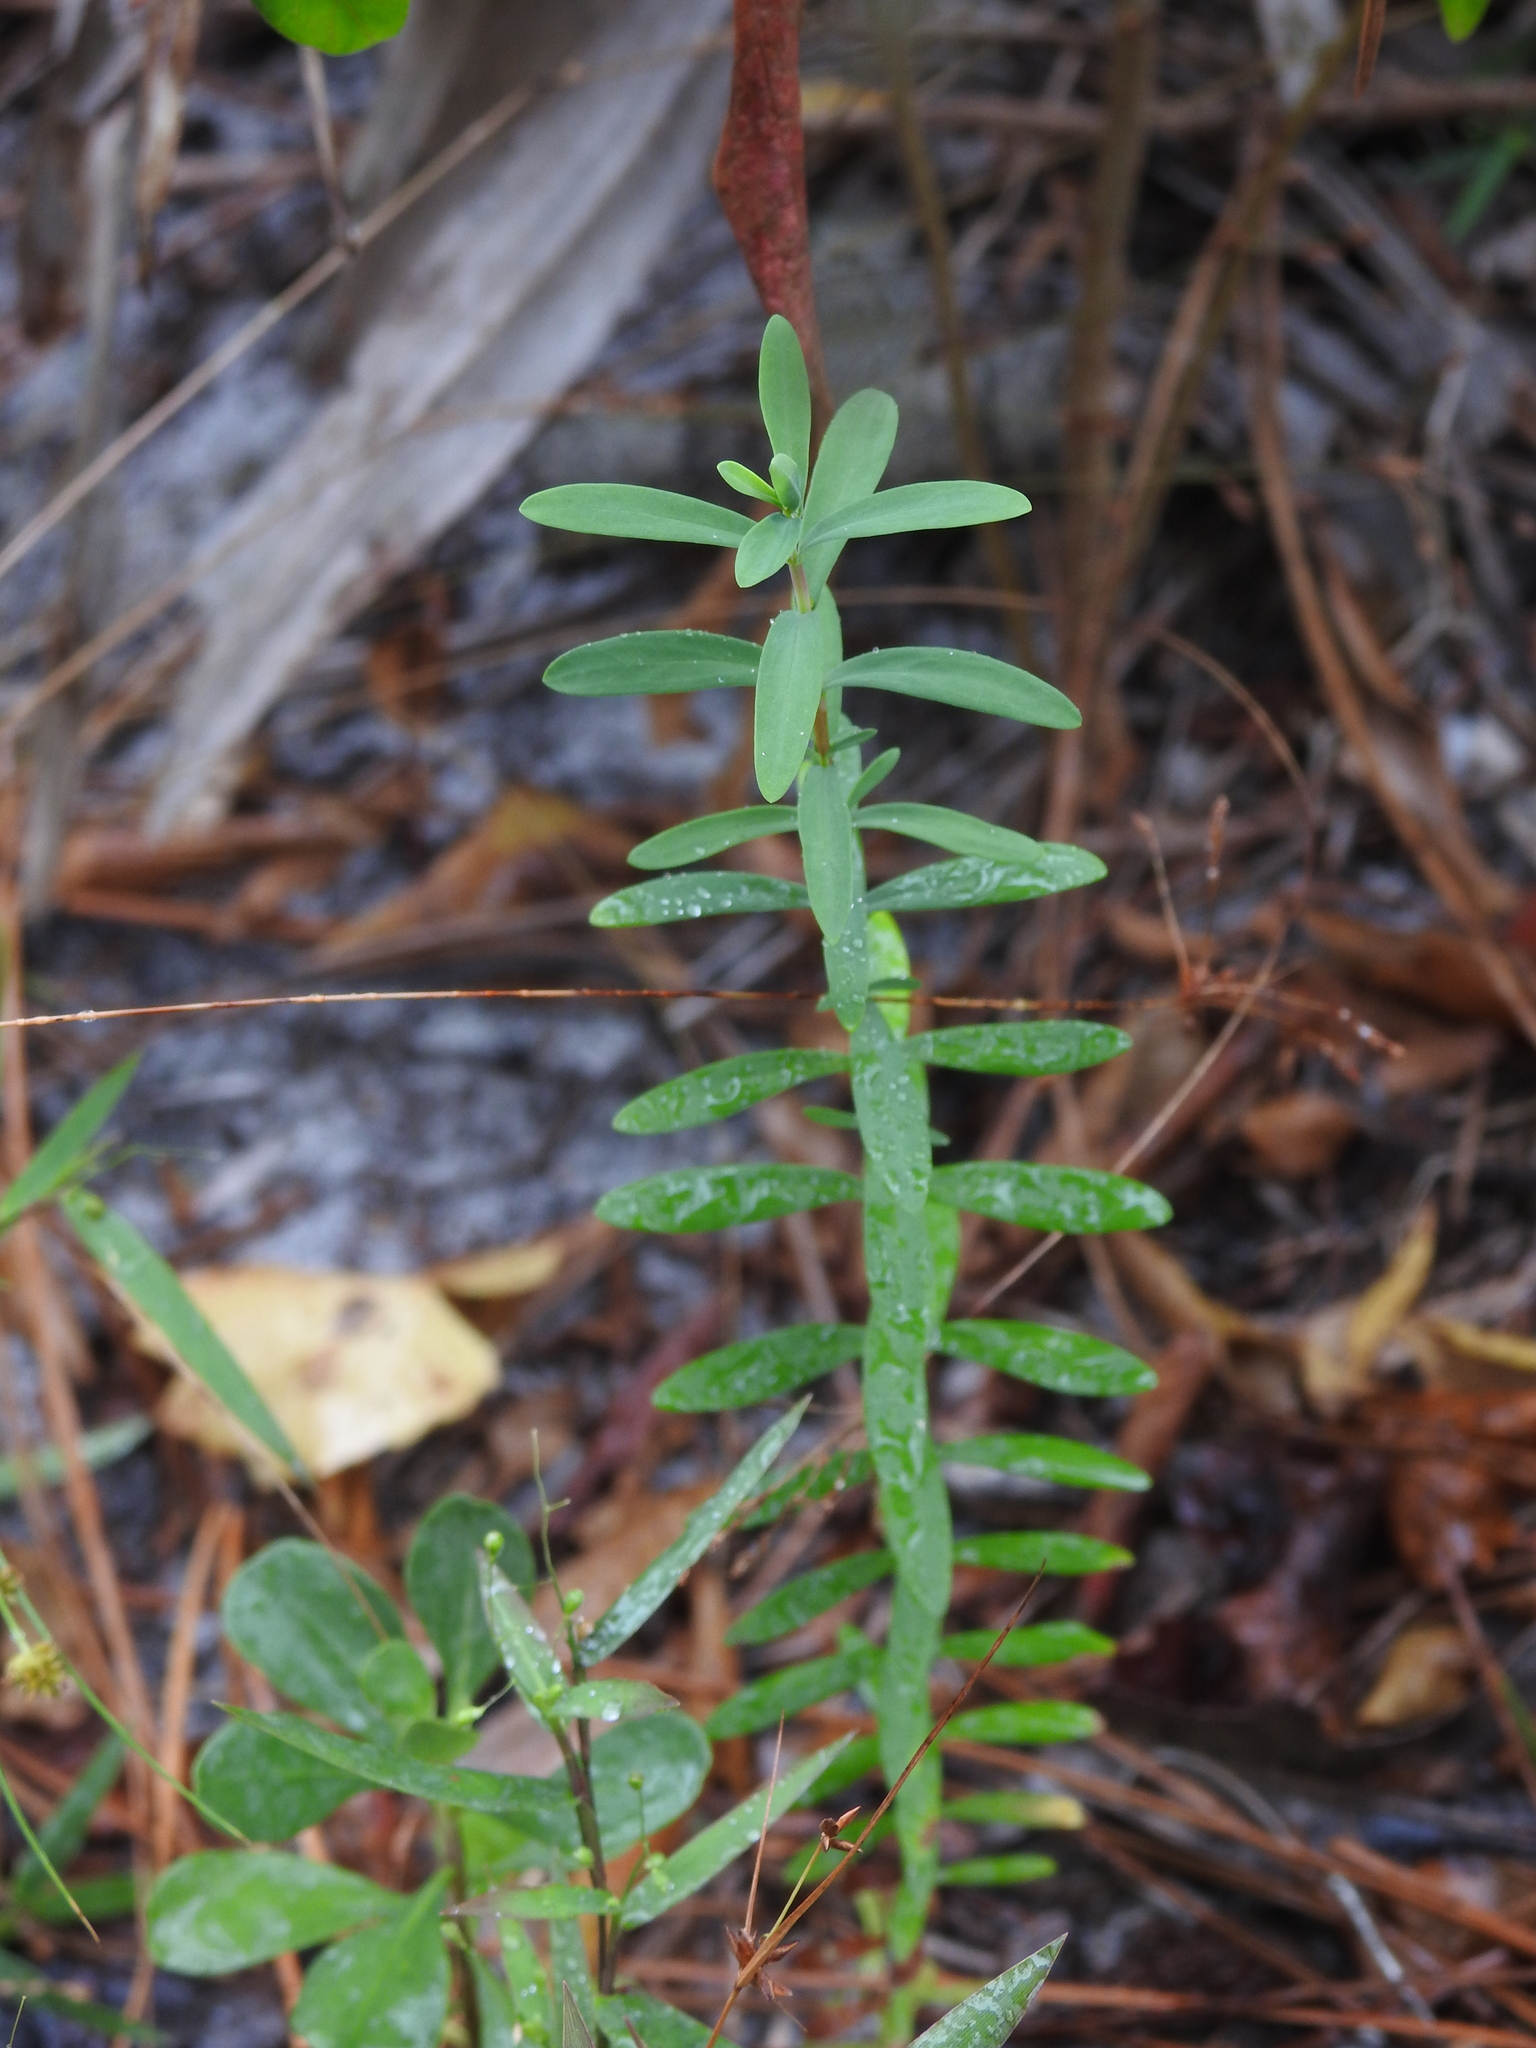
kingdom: Plantae
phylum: Tracheophyta
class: Magnoliopsida
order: Malpighiales
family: Hypericaceae
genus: Hypericum
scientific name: Hypericum hypericoides
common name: St. andrew's cross
